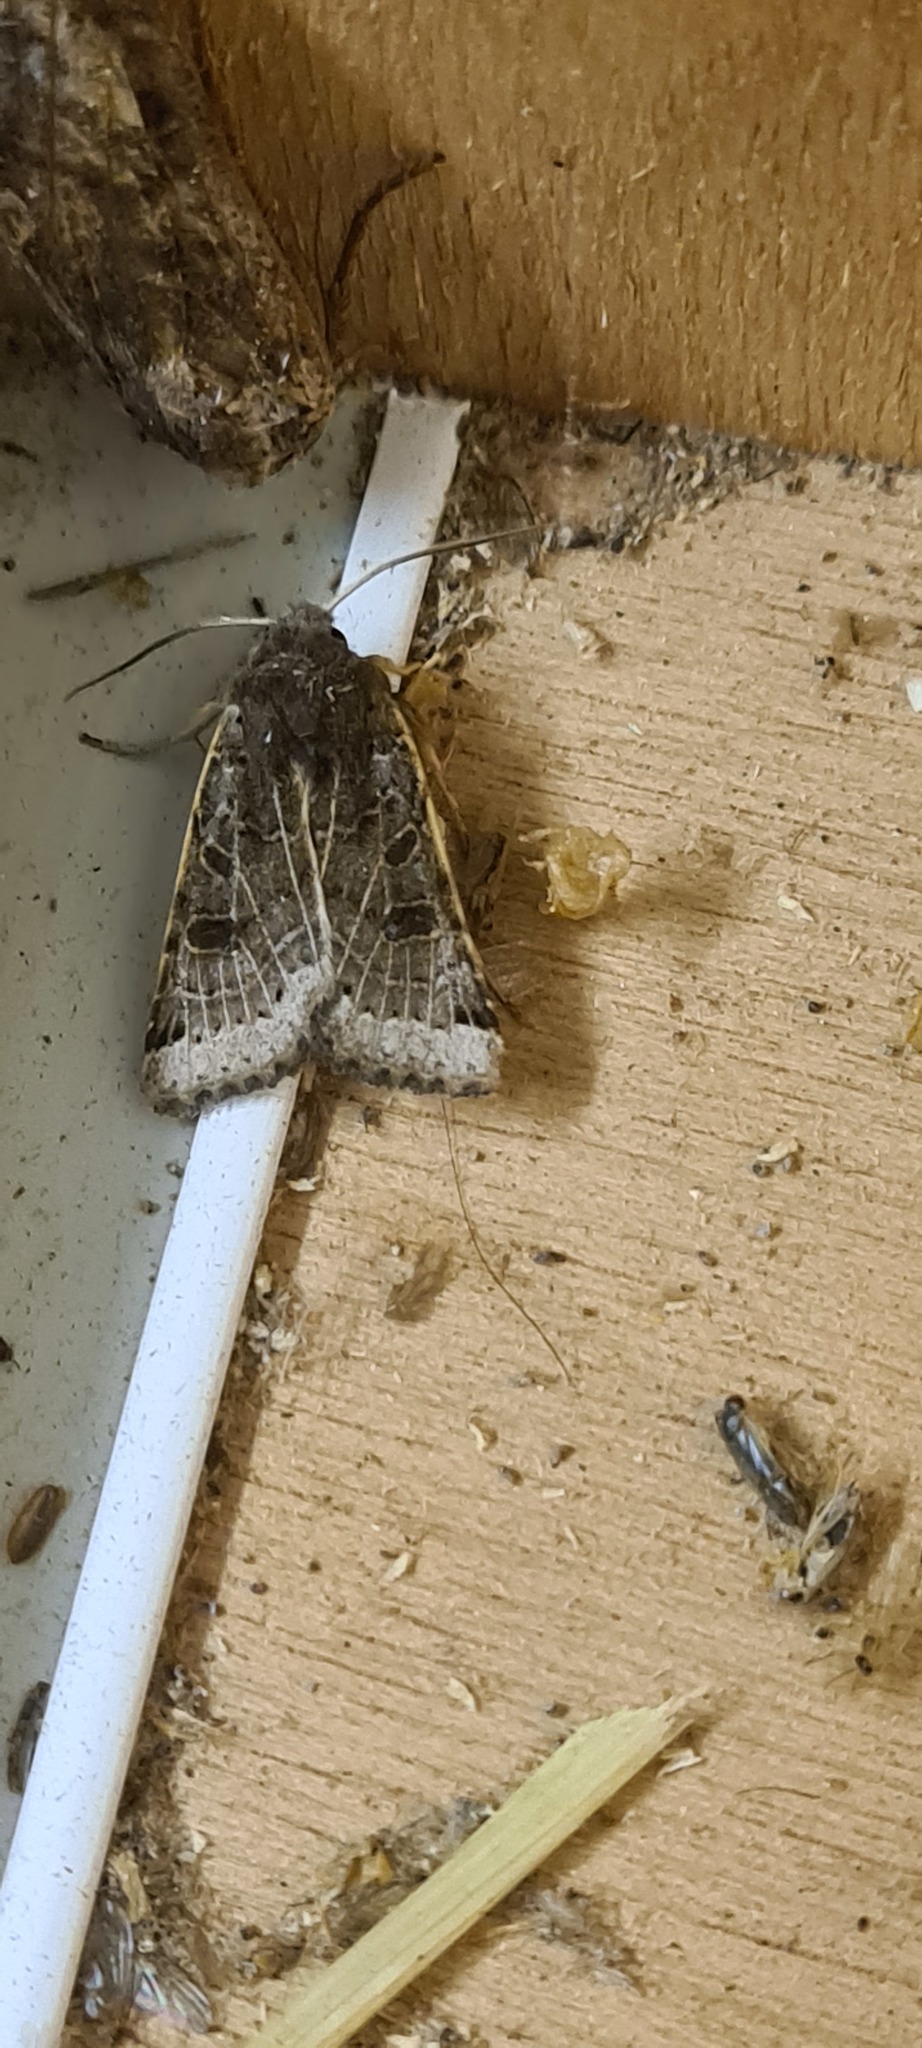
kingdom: Animalia
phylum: Arthropoda
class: Insecta
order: Lepidoptera
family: Noctuidae
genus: Agrochola
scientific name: Agrochola lunosa
